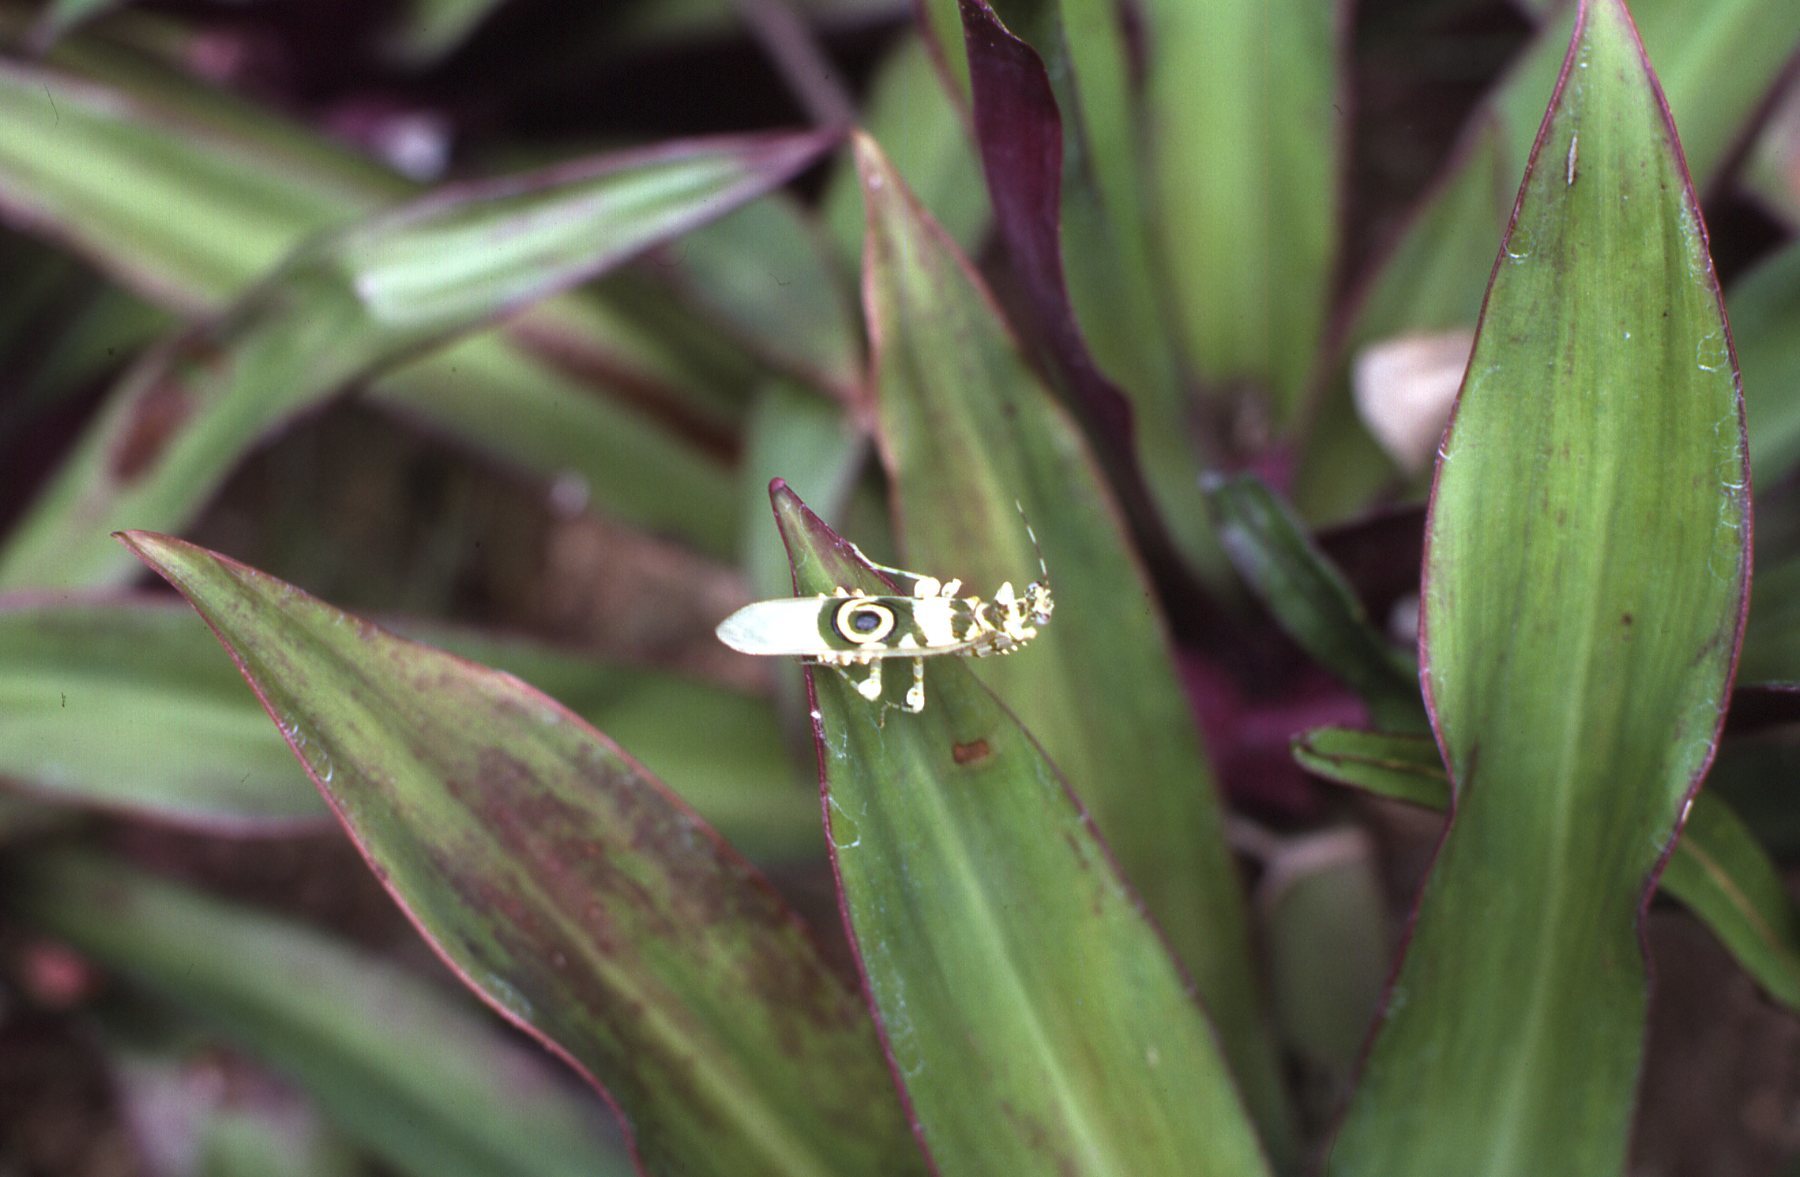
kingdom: Animalia
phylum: Arthropoda
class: Insecta
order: Mantodea
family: Hymenopodidae
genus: Pseudocreobotra
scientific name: Pseudocreobotra wahlbergi
